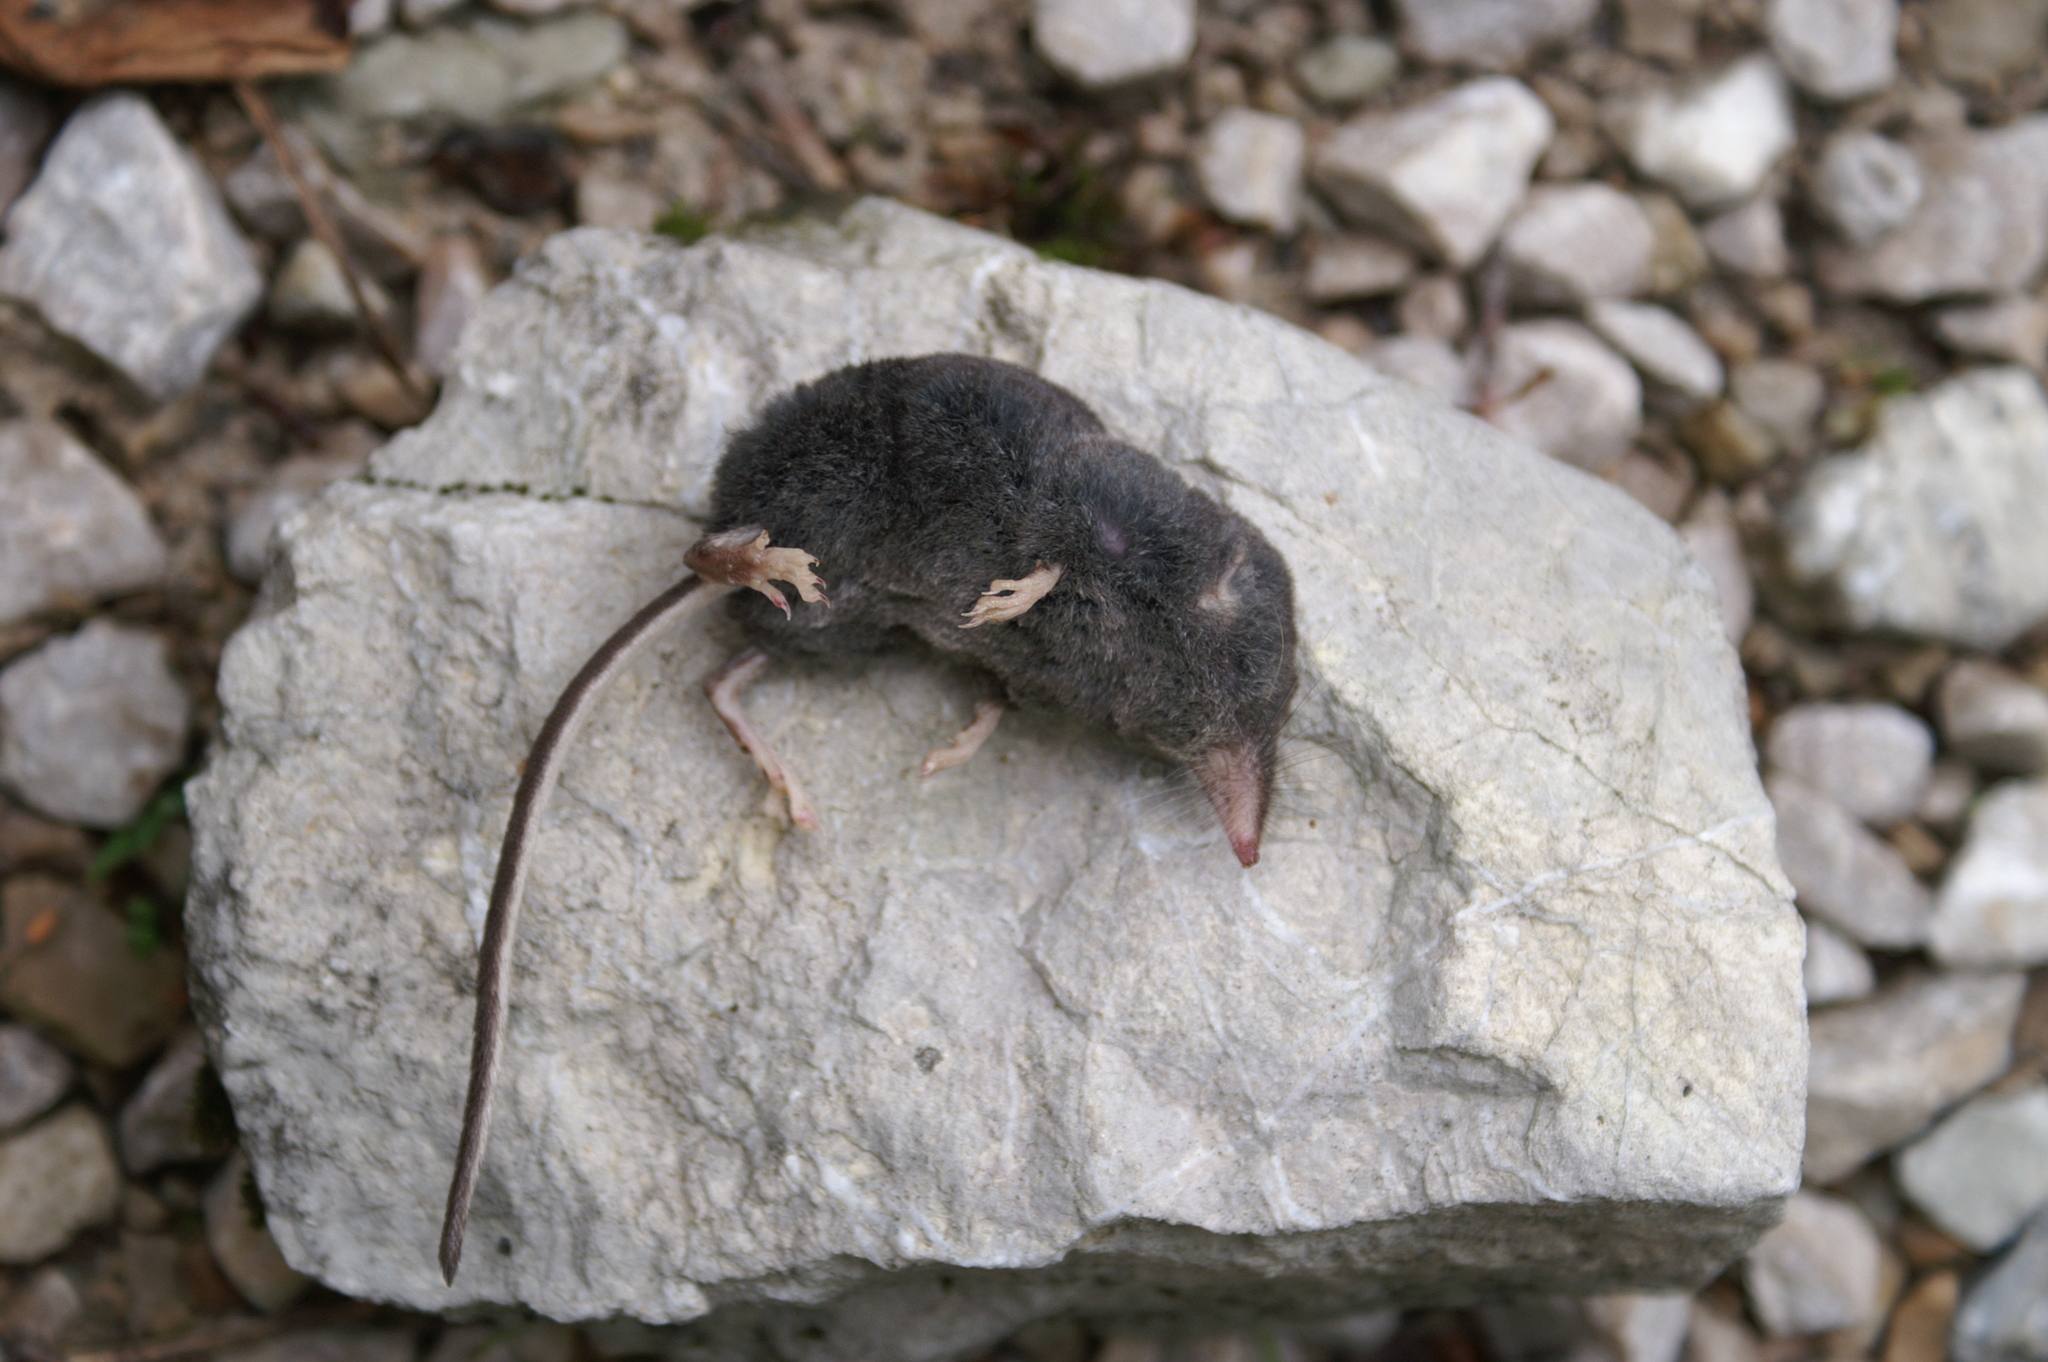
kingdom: Animalia
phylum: Chordata
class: Mammalia
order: Soricomorpha
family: Soricidae
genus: Sorex
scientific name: Sorex alpinus
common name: Alpine shrew
